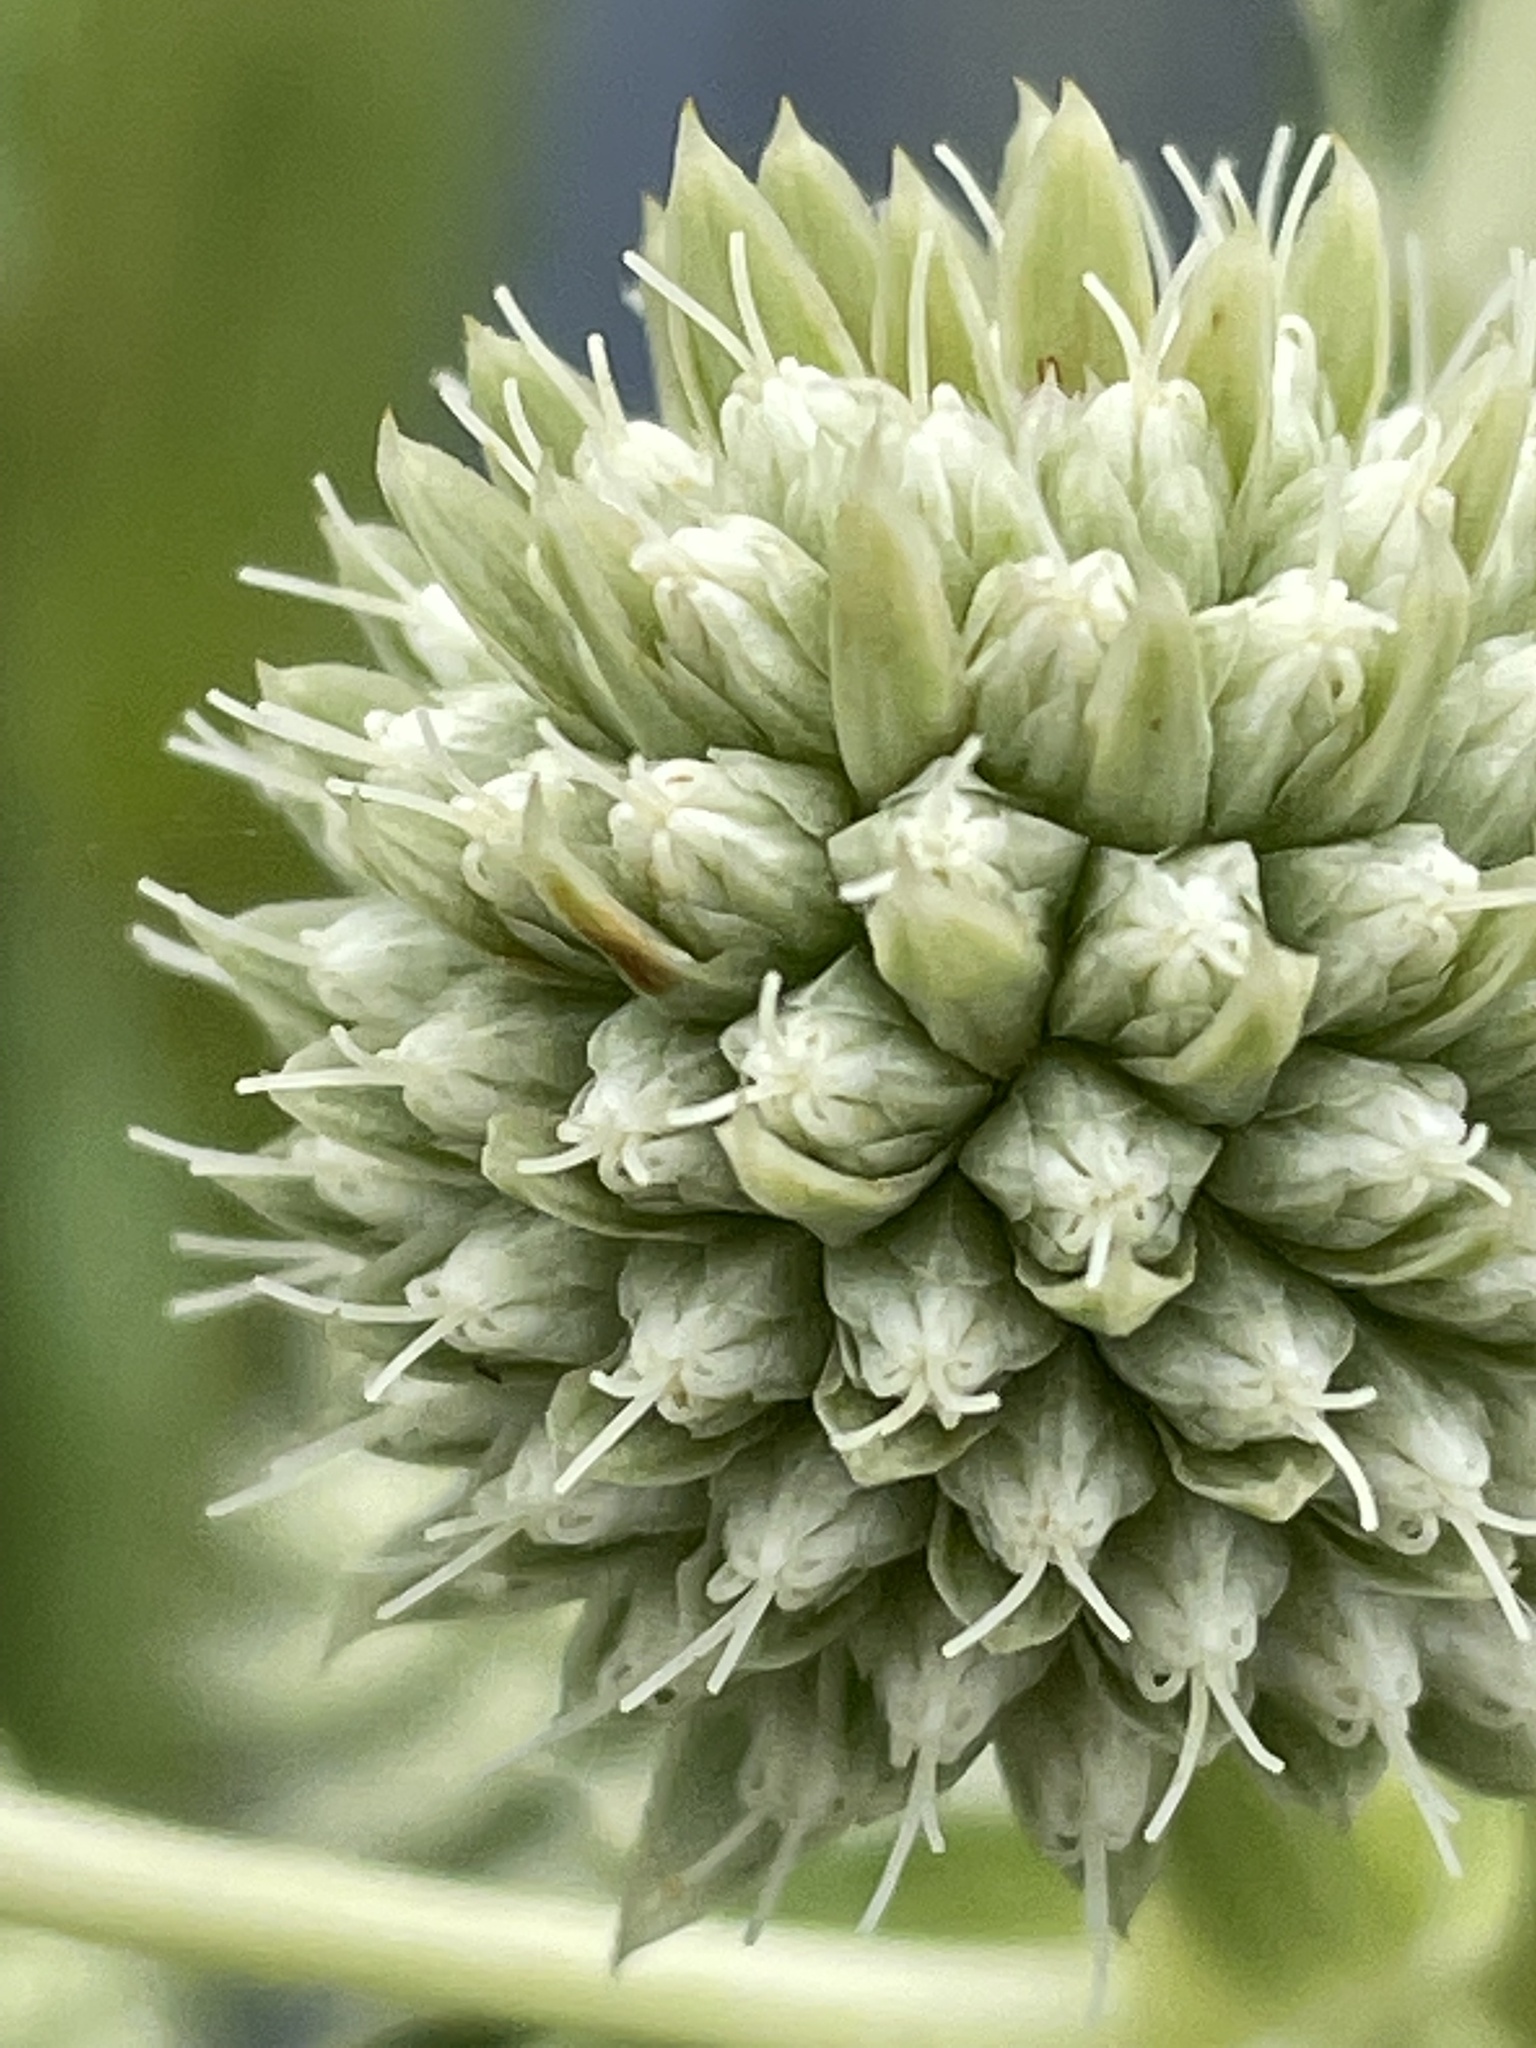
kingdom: Plantae
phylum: Tracheophyta
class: Magnoliopsida
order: Apiales
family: Apiaceae
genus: Eryngium
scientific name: Eryngium yuccifolium
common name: Button eryngo
